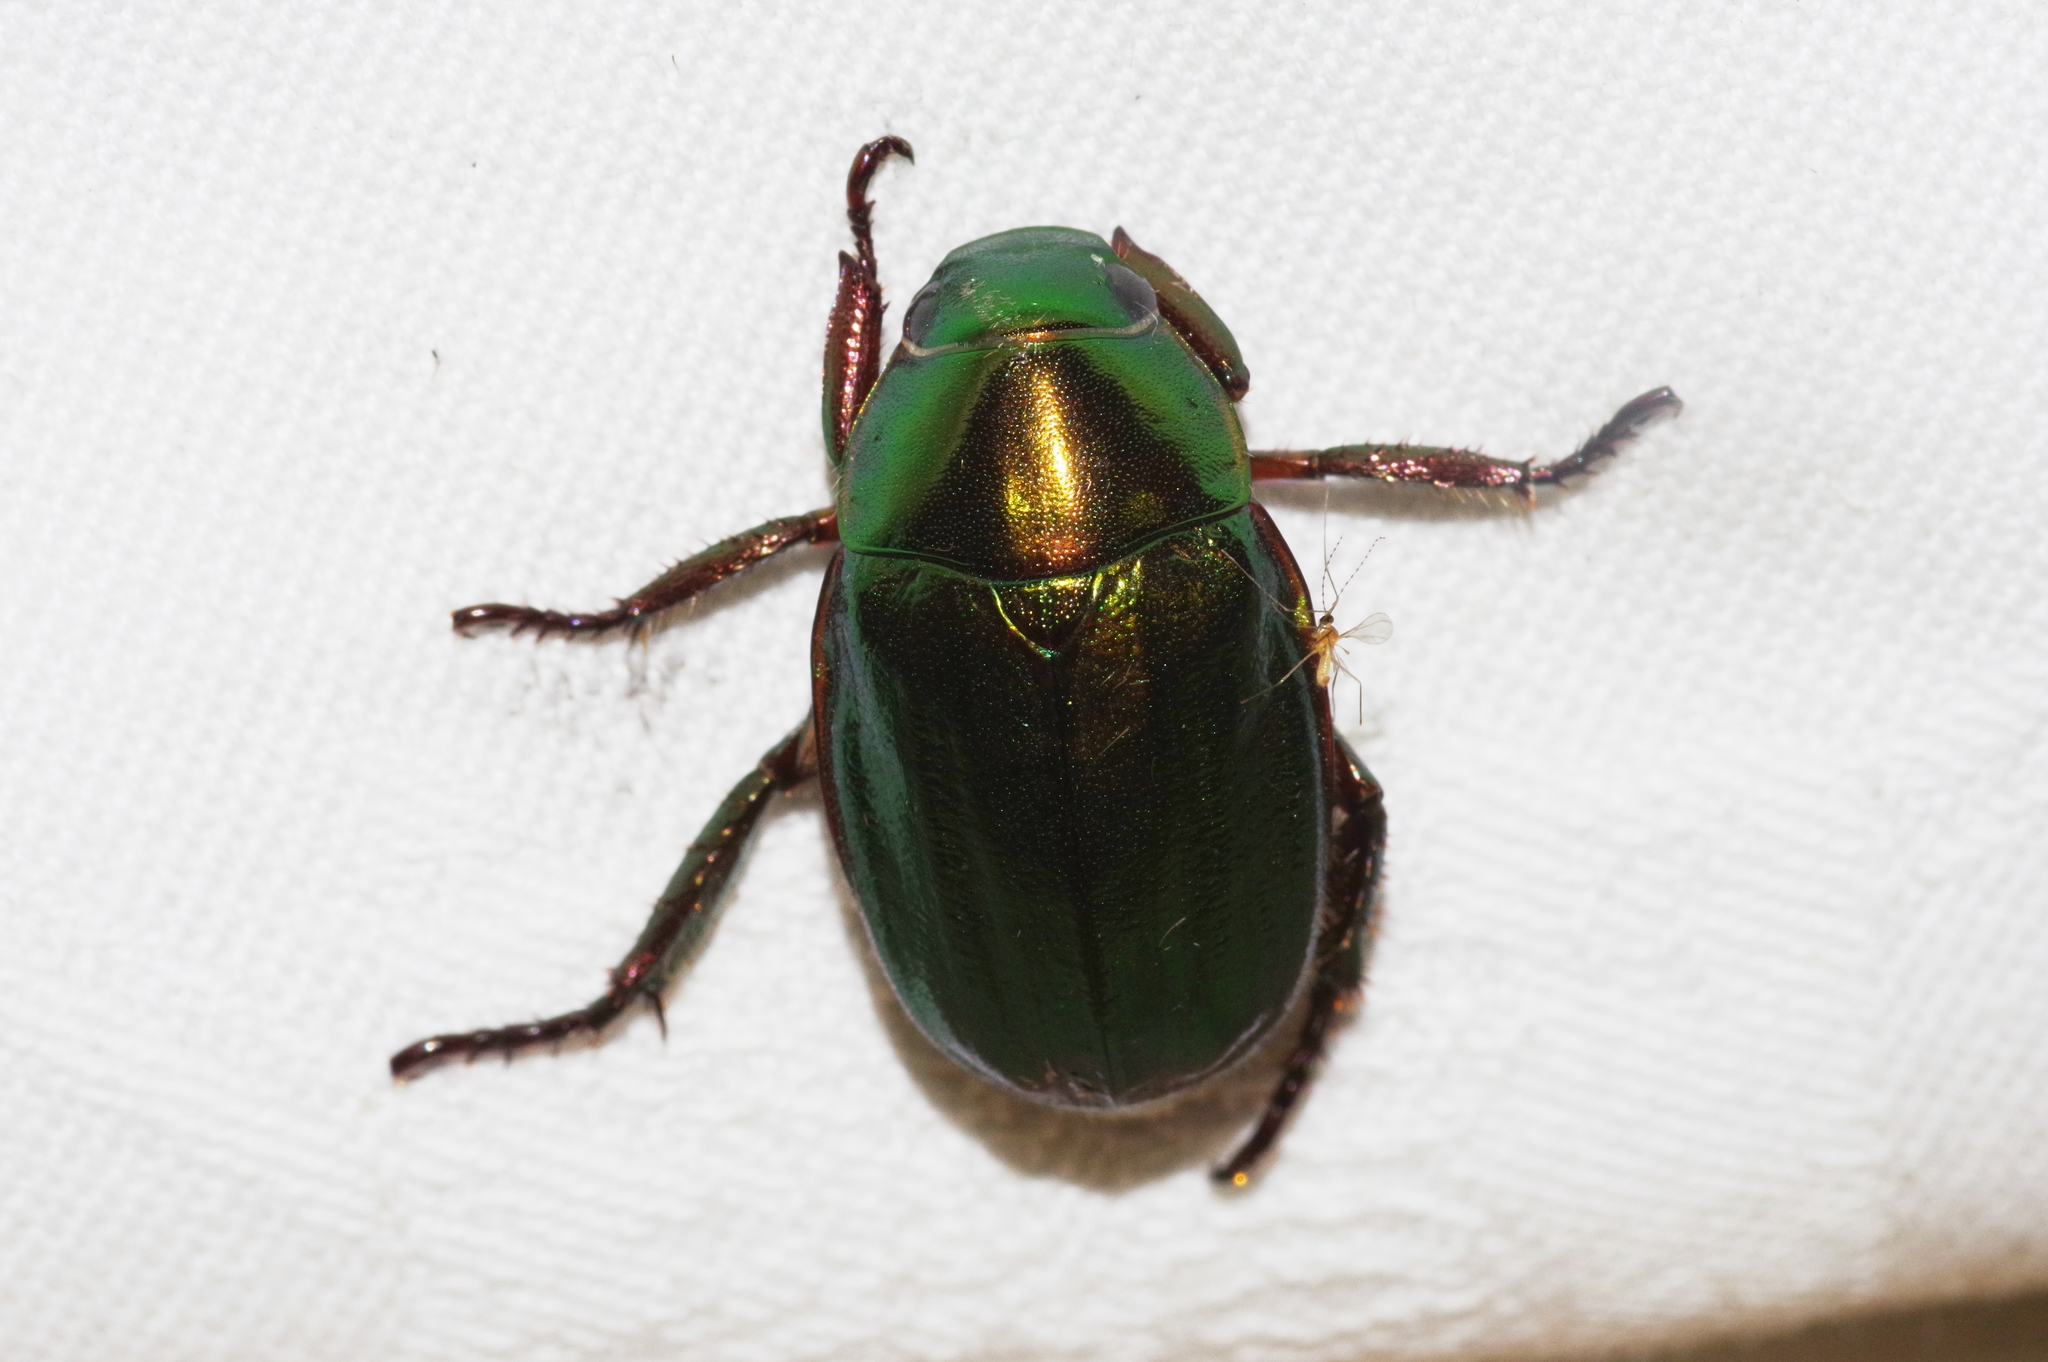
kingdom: Animalia
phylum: Arthropoda
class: Insecta
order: Coleoptera
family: Scarabaeidae
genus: Anomala
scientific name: Anomala edentula
